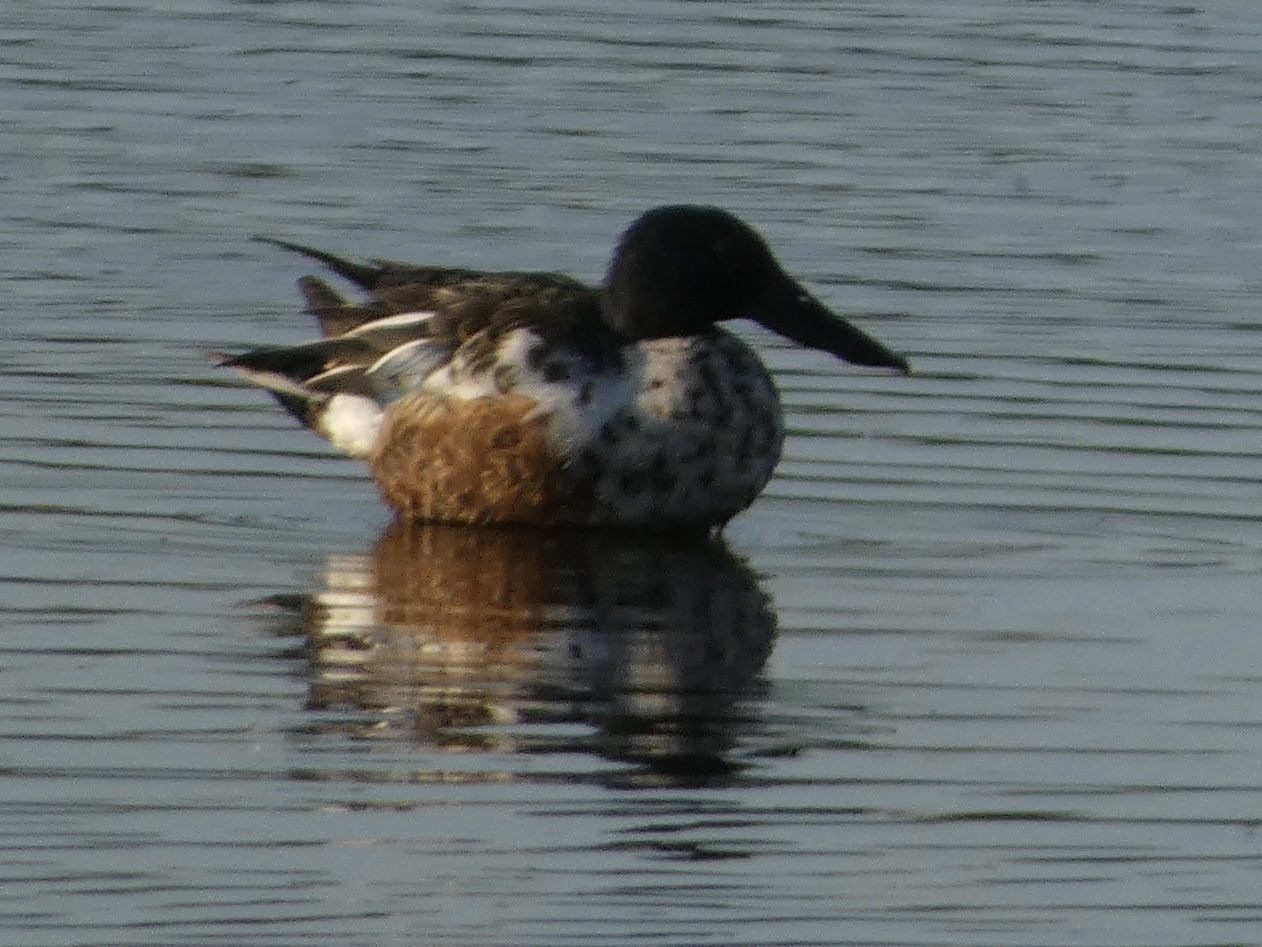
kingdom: Animalia
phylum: Chordata
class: Aves
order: Anseriformes
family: Anatidae
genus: Spatula
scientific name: Spatula clypeata
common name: Northern shoveler
